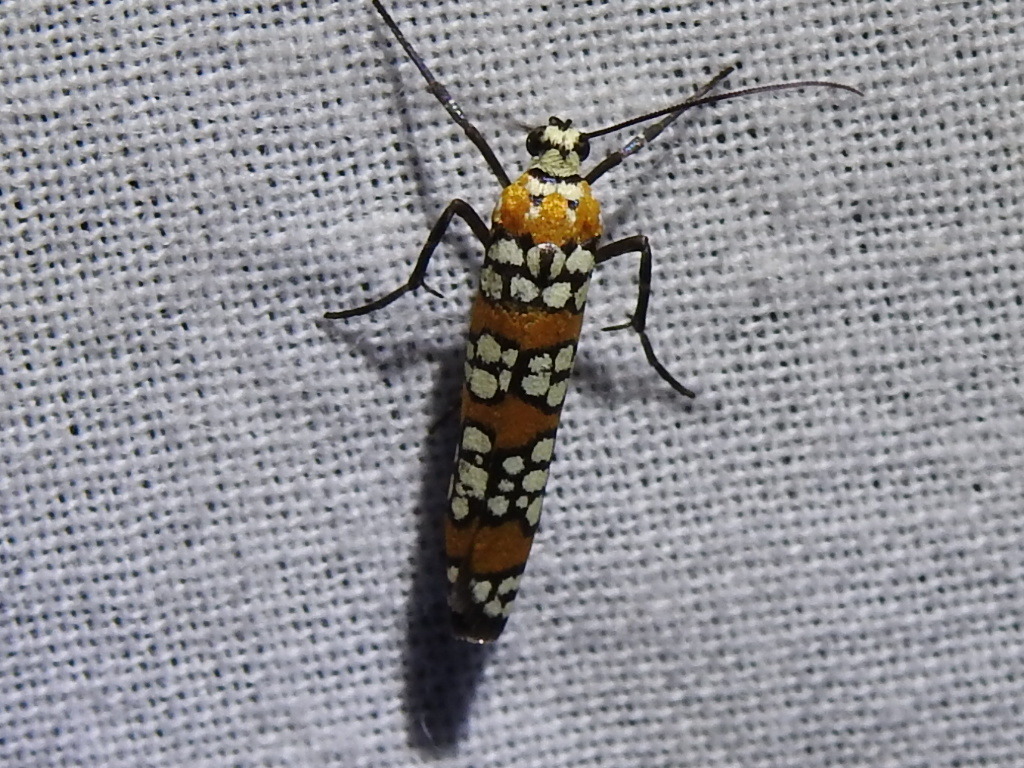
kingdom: Animalia
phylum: Arthropoda
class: Insecta
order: Lepidoptera
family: Attevidae
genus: Atteva
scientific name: Atteva punctella
